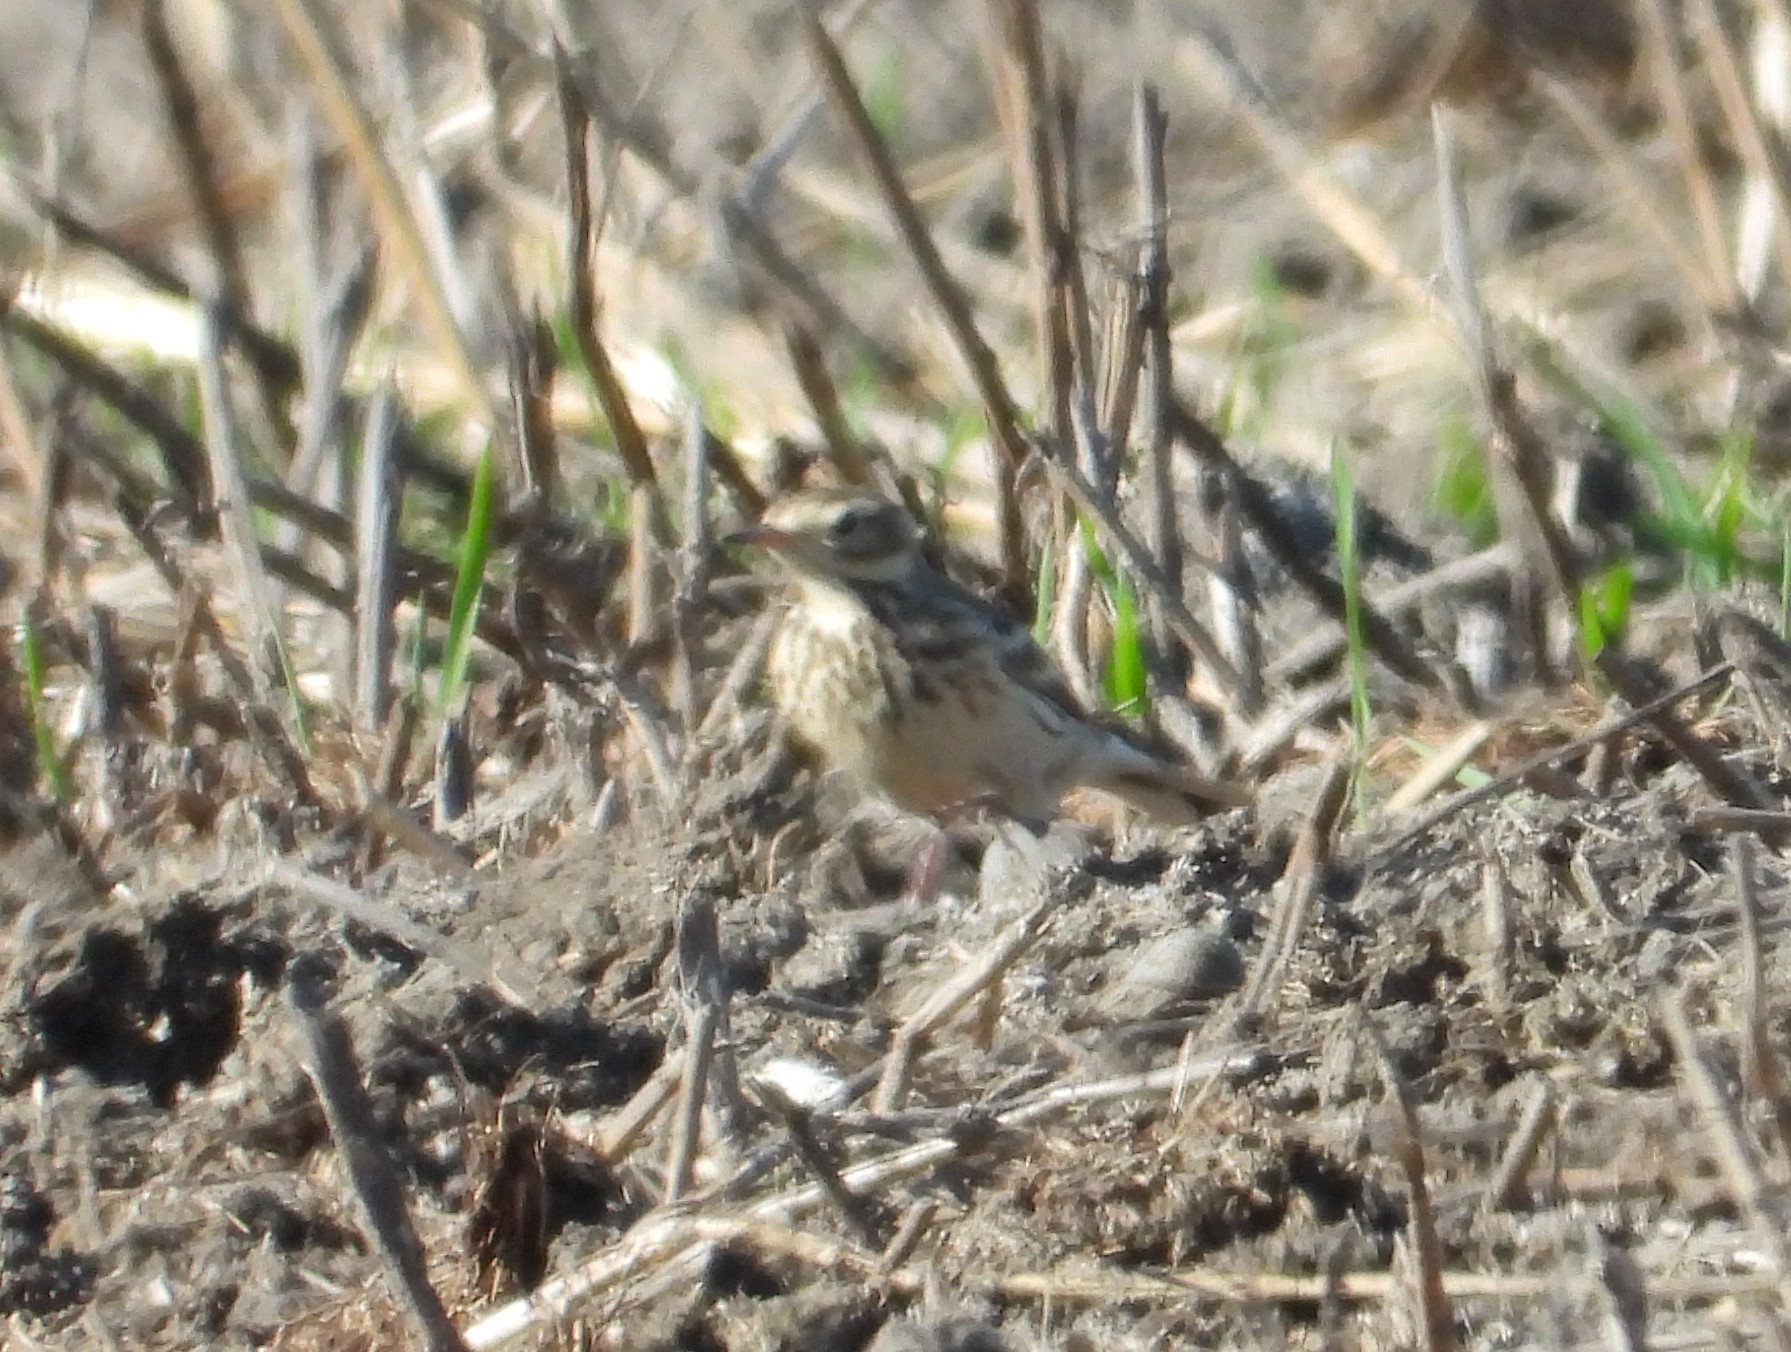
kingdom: Animalia
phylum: Chordata
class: Aves
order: Passeriformes
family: Motacillidae
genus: Anthus
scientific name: Anthus rubescens
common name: Buff-bellied pipit
